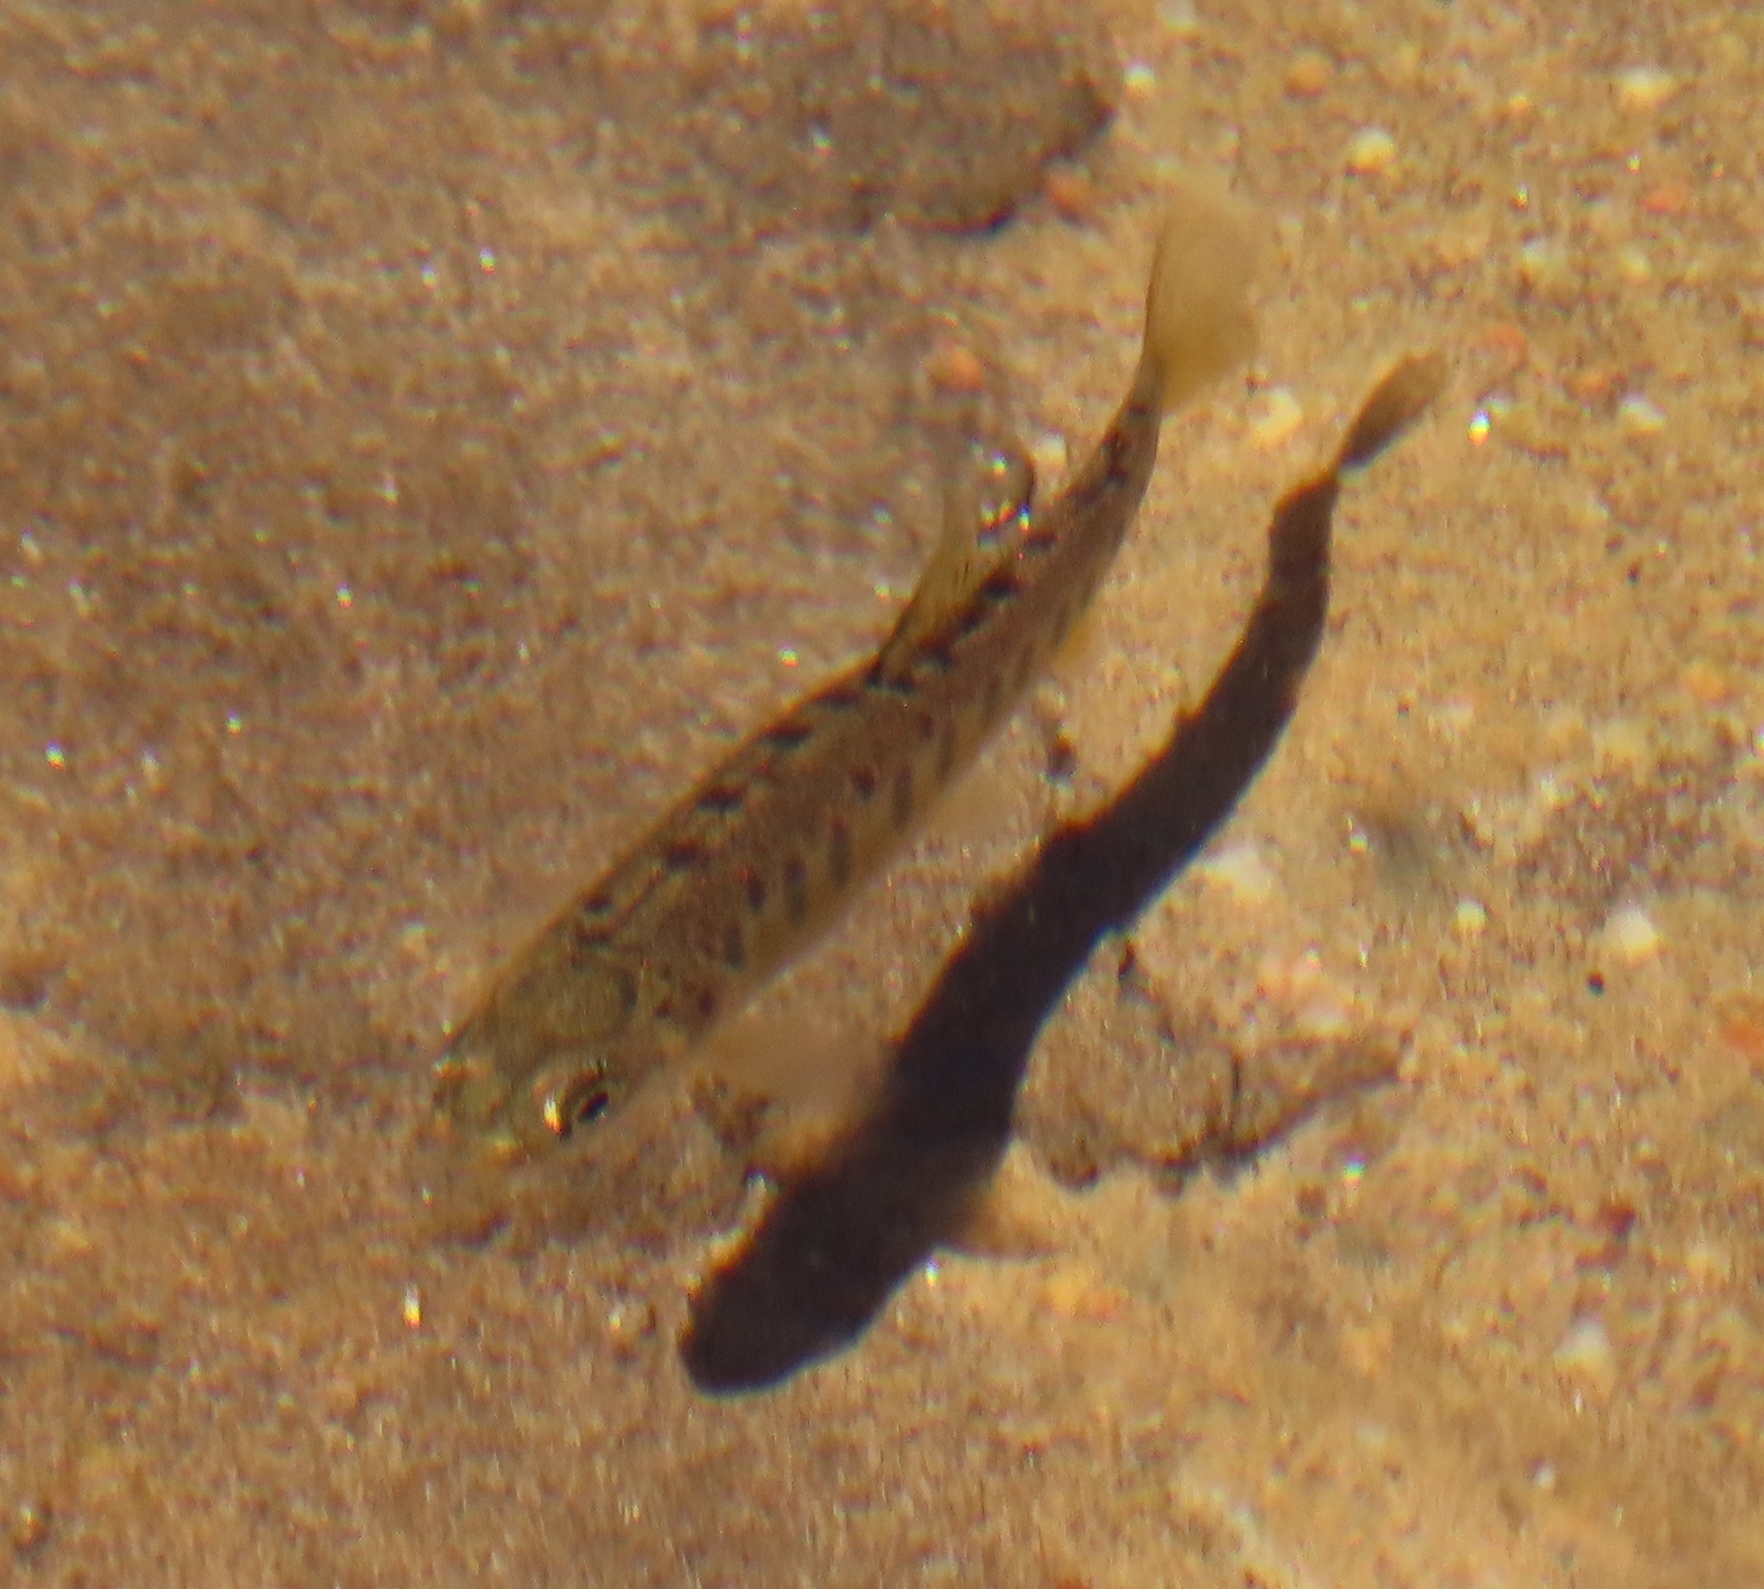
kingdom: Animalia
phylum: Chordata
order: Salmoniformes
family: Salmonidae
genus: Oncorhynchus
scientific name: Oncorhynchus mykiss
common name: Rainbow trout
